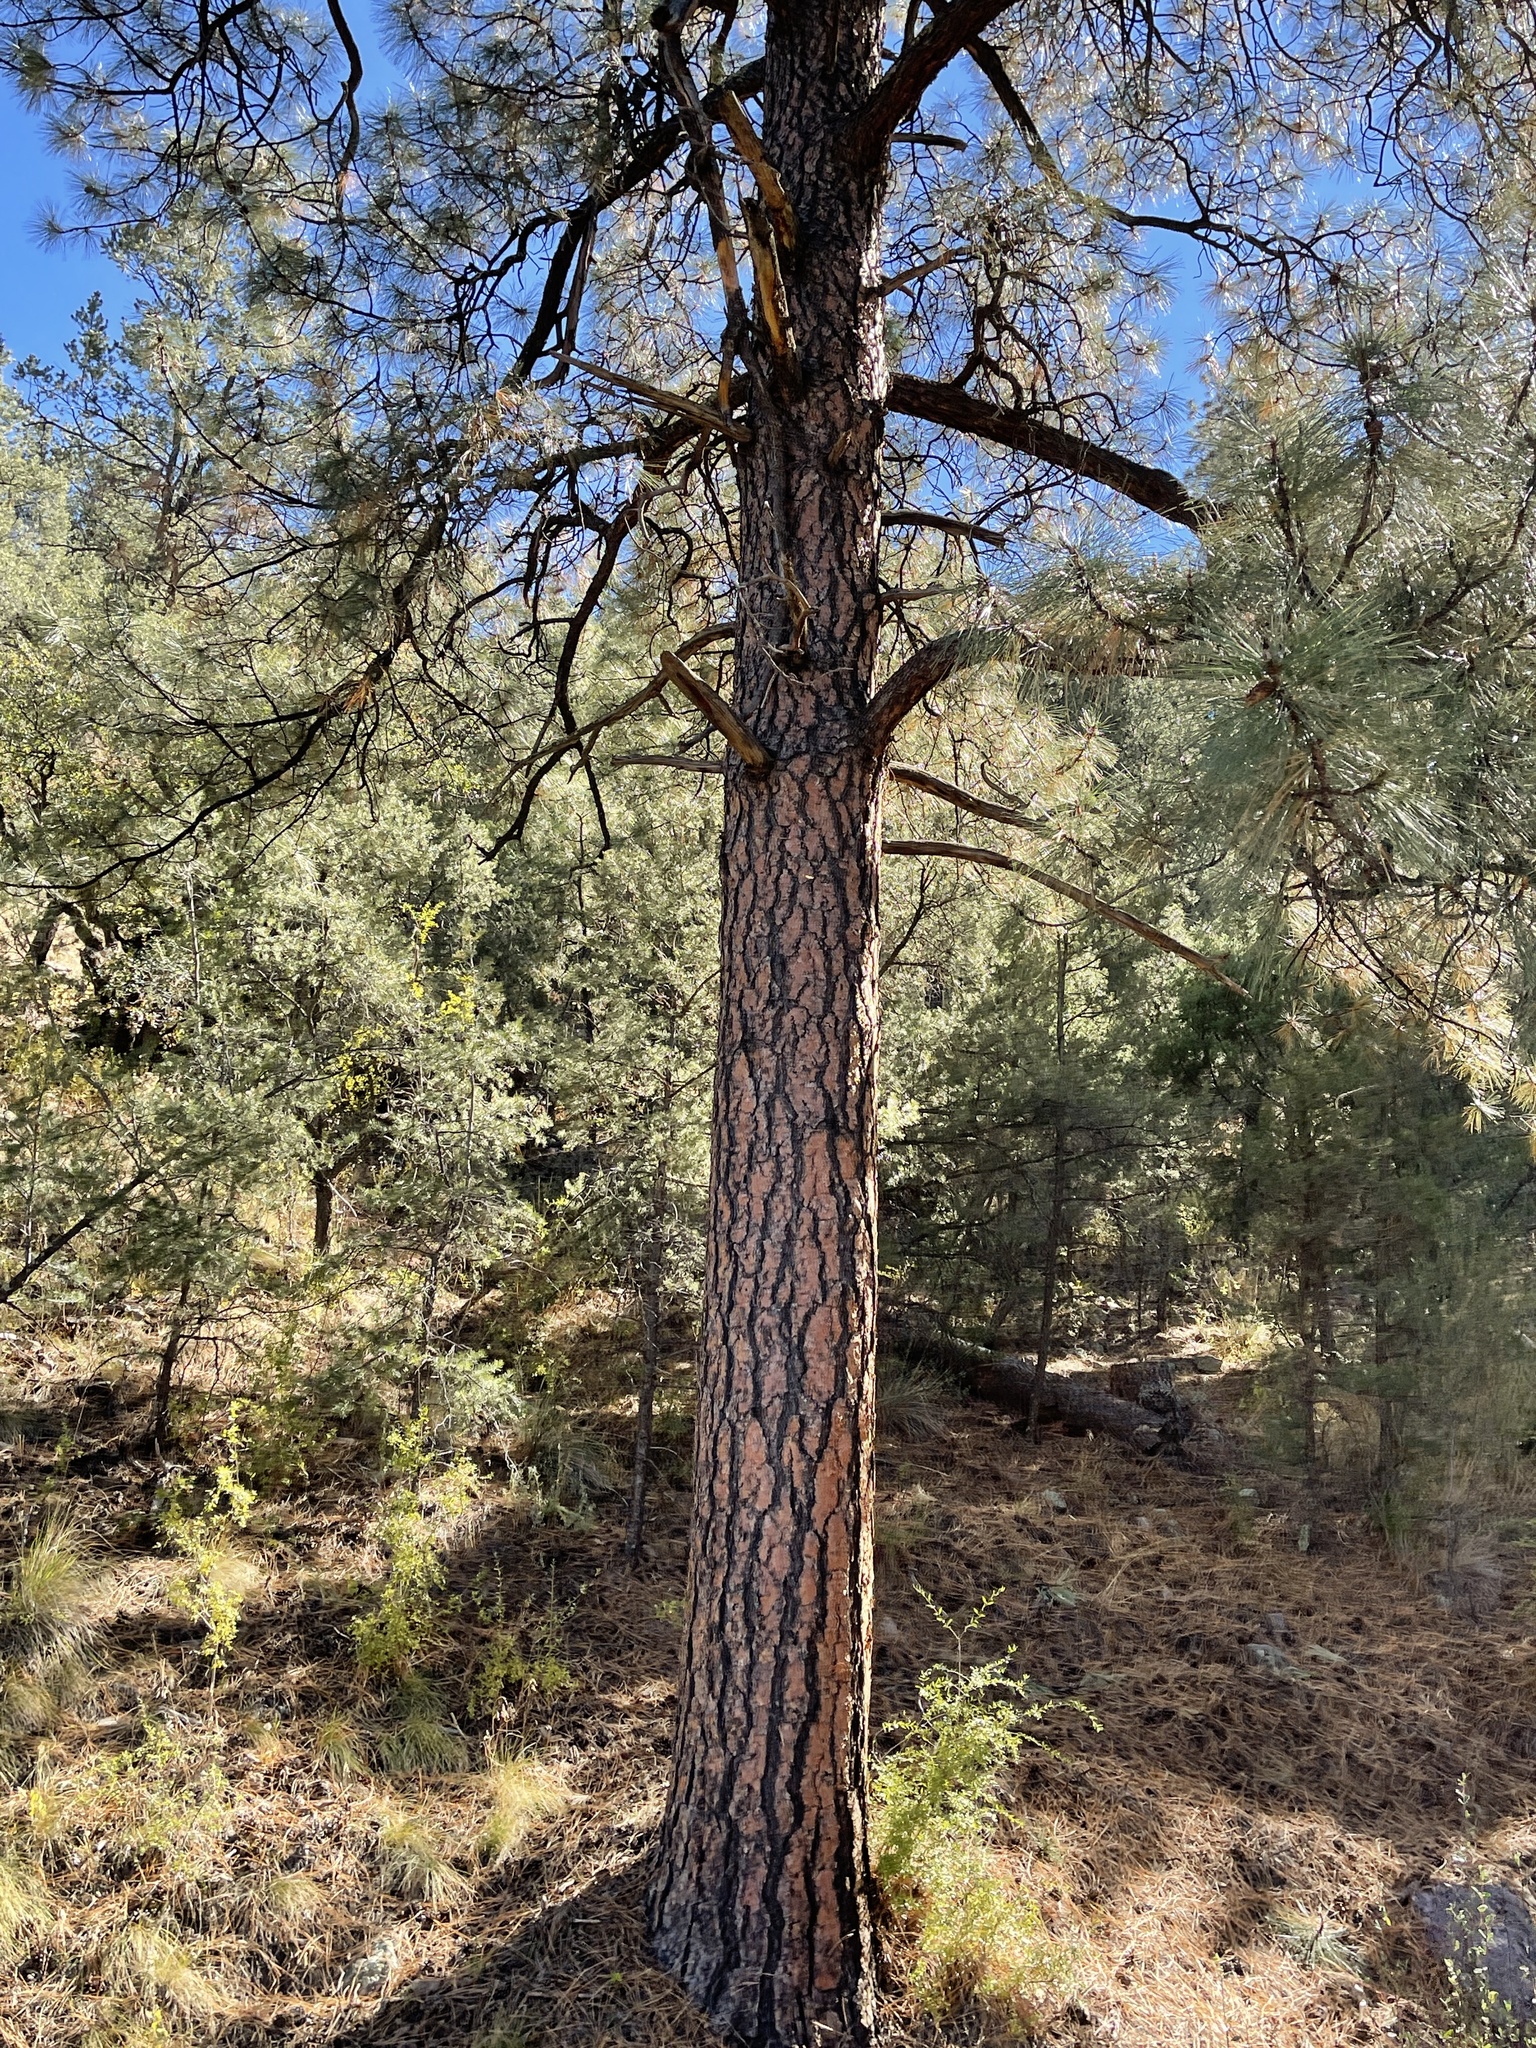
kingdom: Plantae
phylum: Tracheophyta
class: Pinopsida
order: Pinales
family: Pinaceae
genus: Pinus
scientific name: Pinus ponderosa
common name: Western yellow-pine
